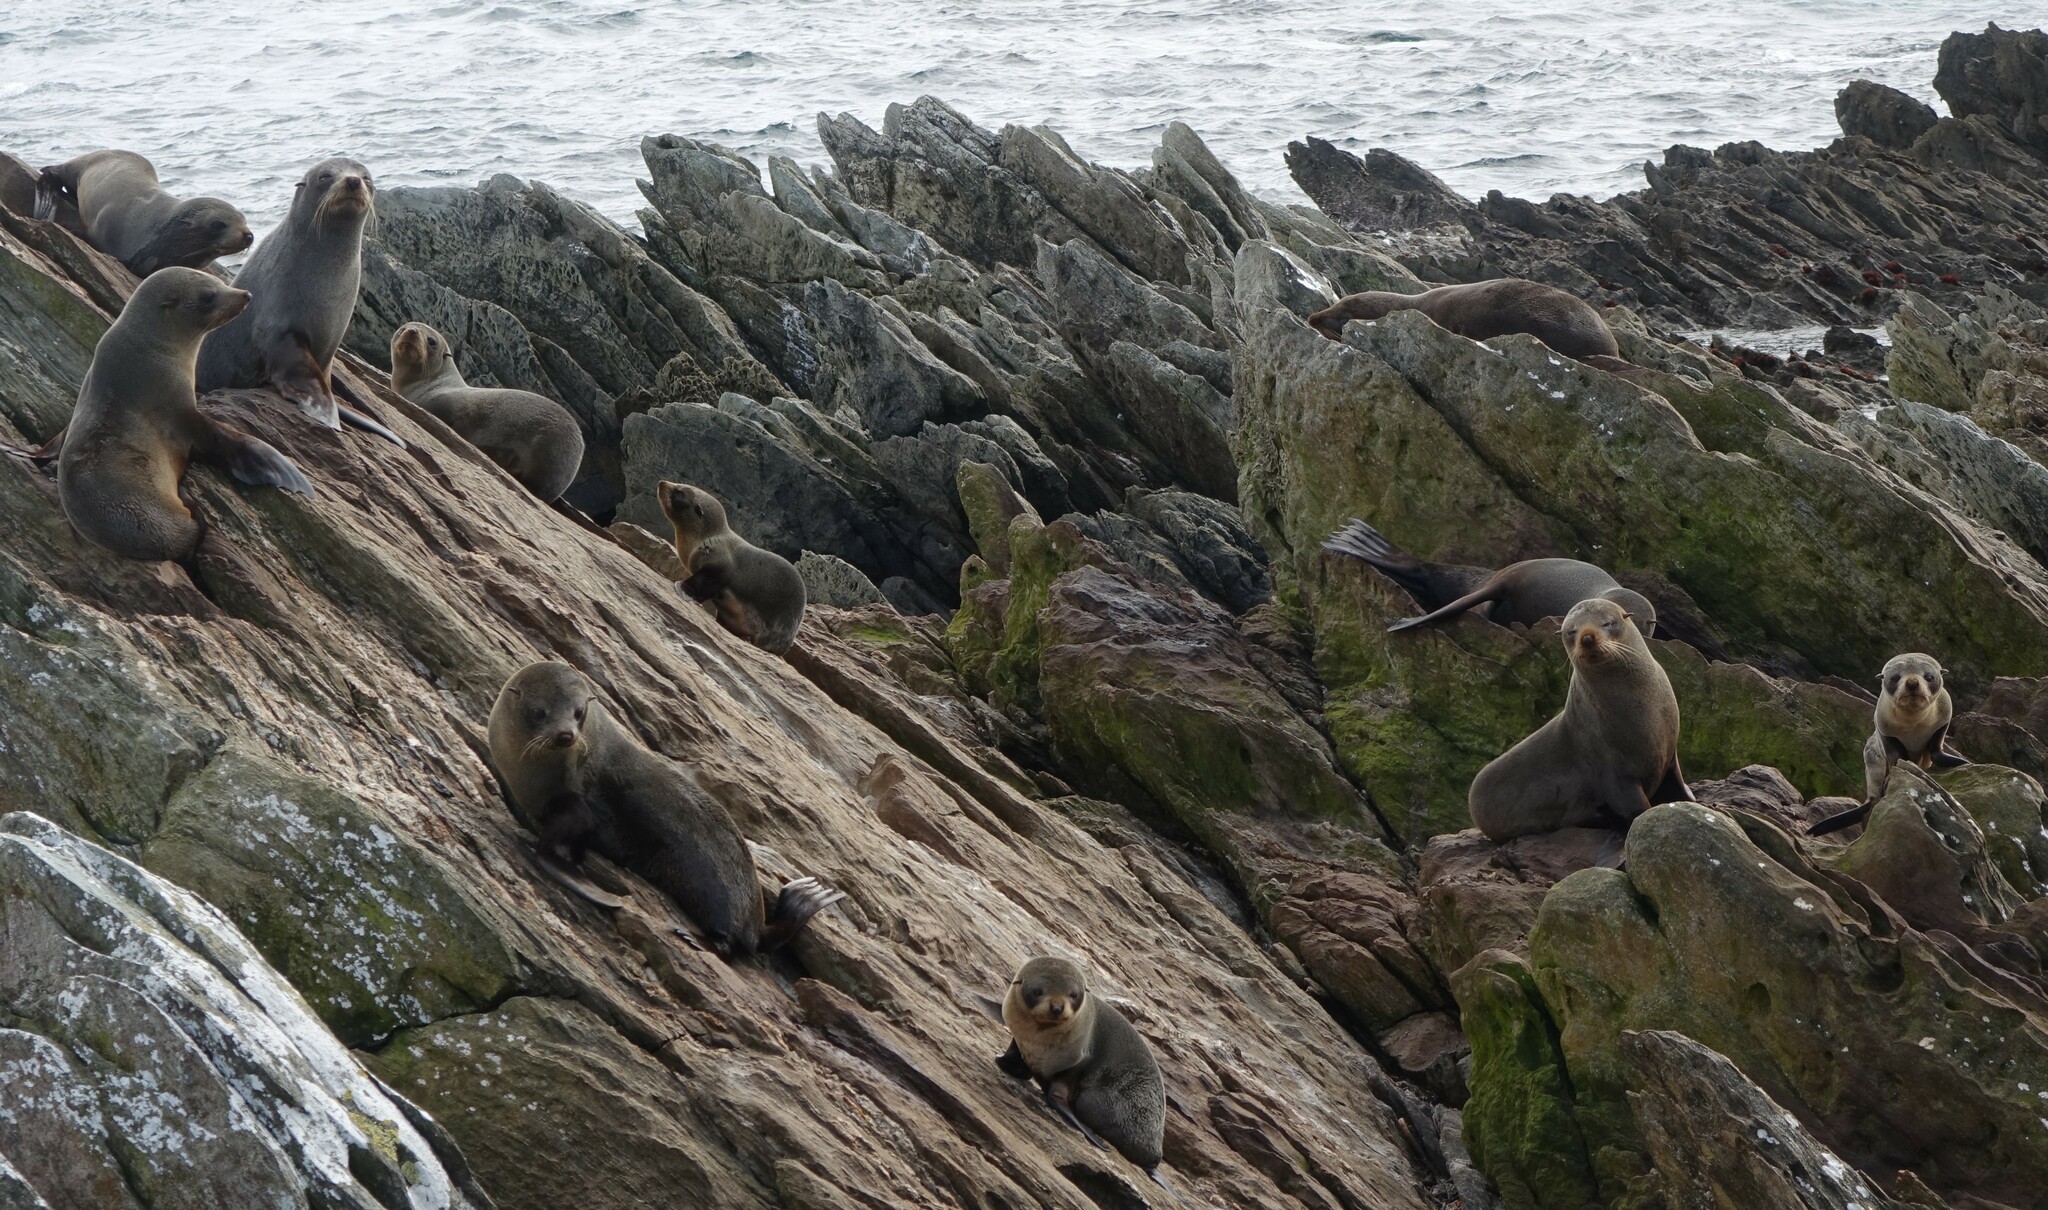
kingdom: Animalia
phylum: Chordata
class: Mammalia
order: Carnivora
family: Otariidae
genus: Arctocephalus
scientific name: Arctocephalus forsteri
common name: New zealand fur seal
